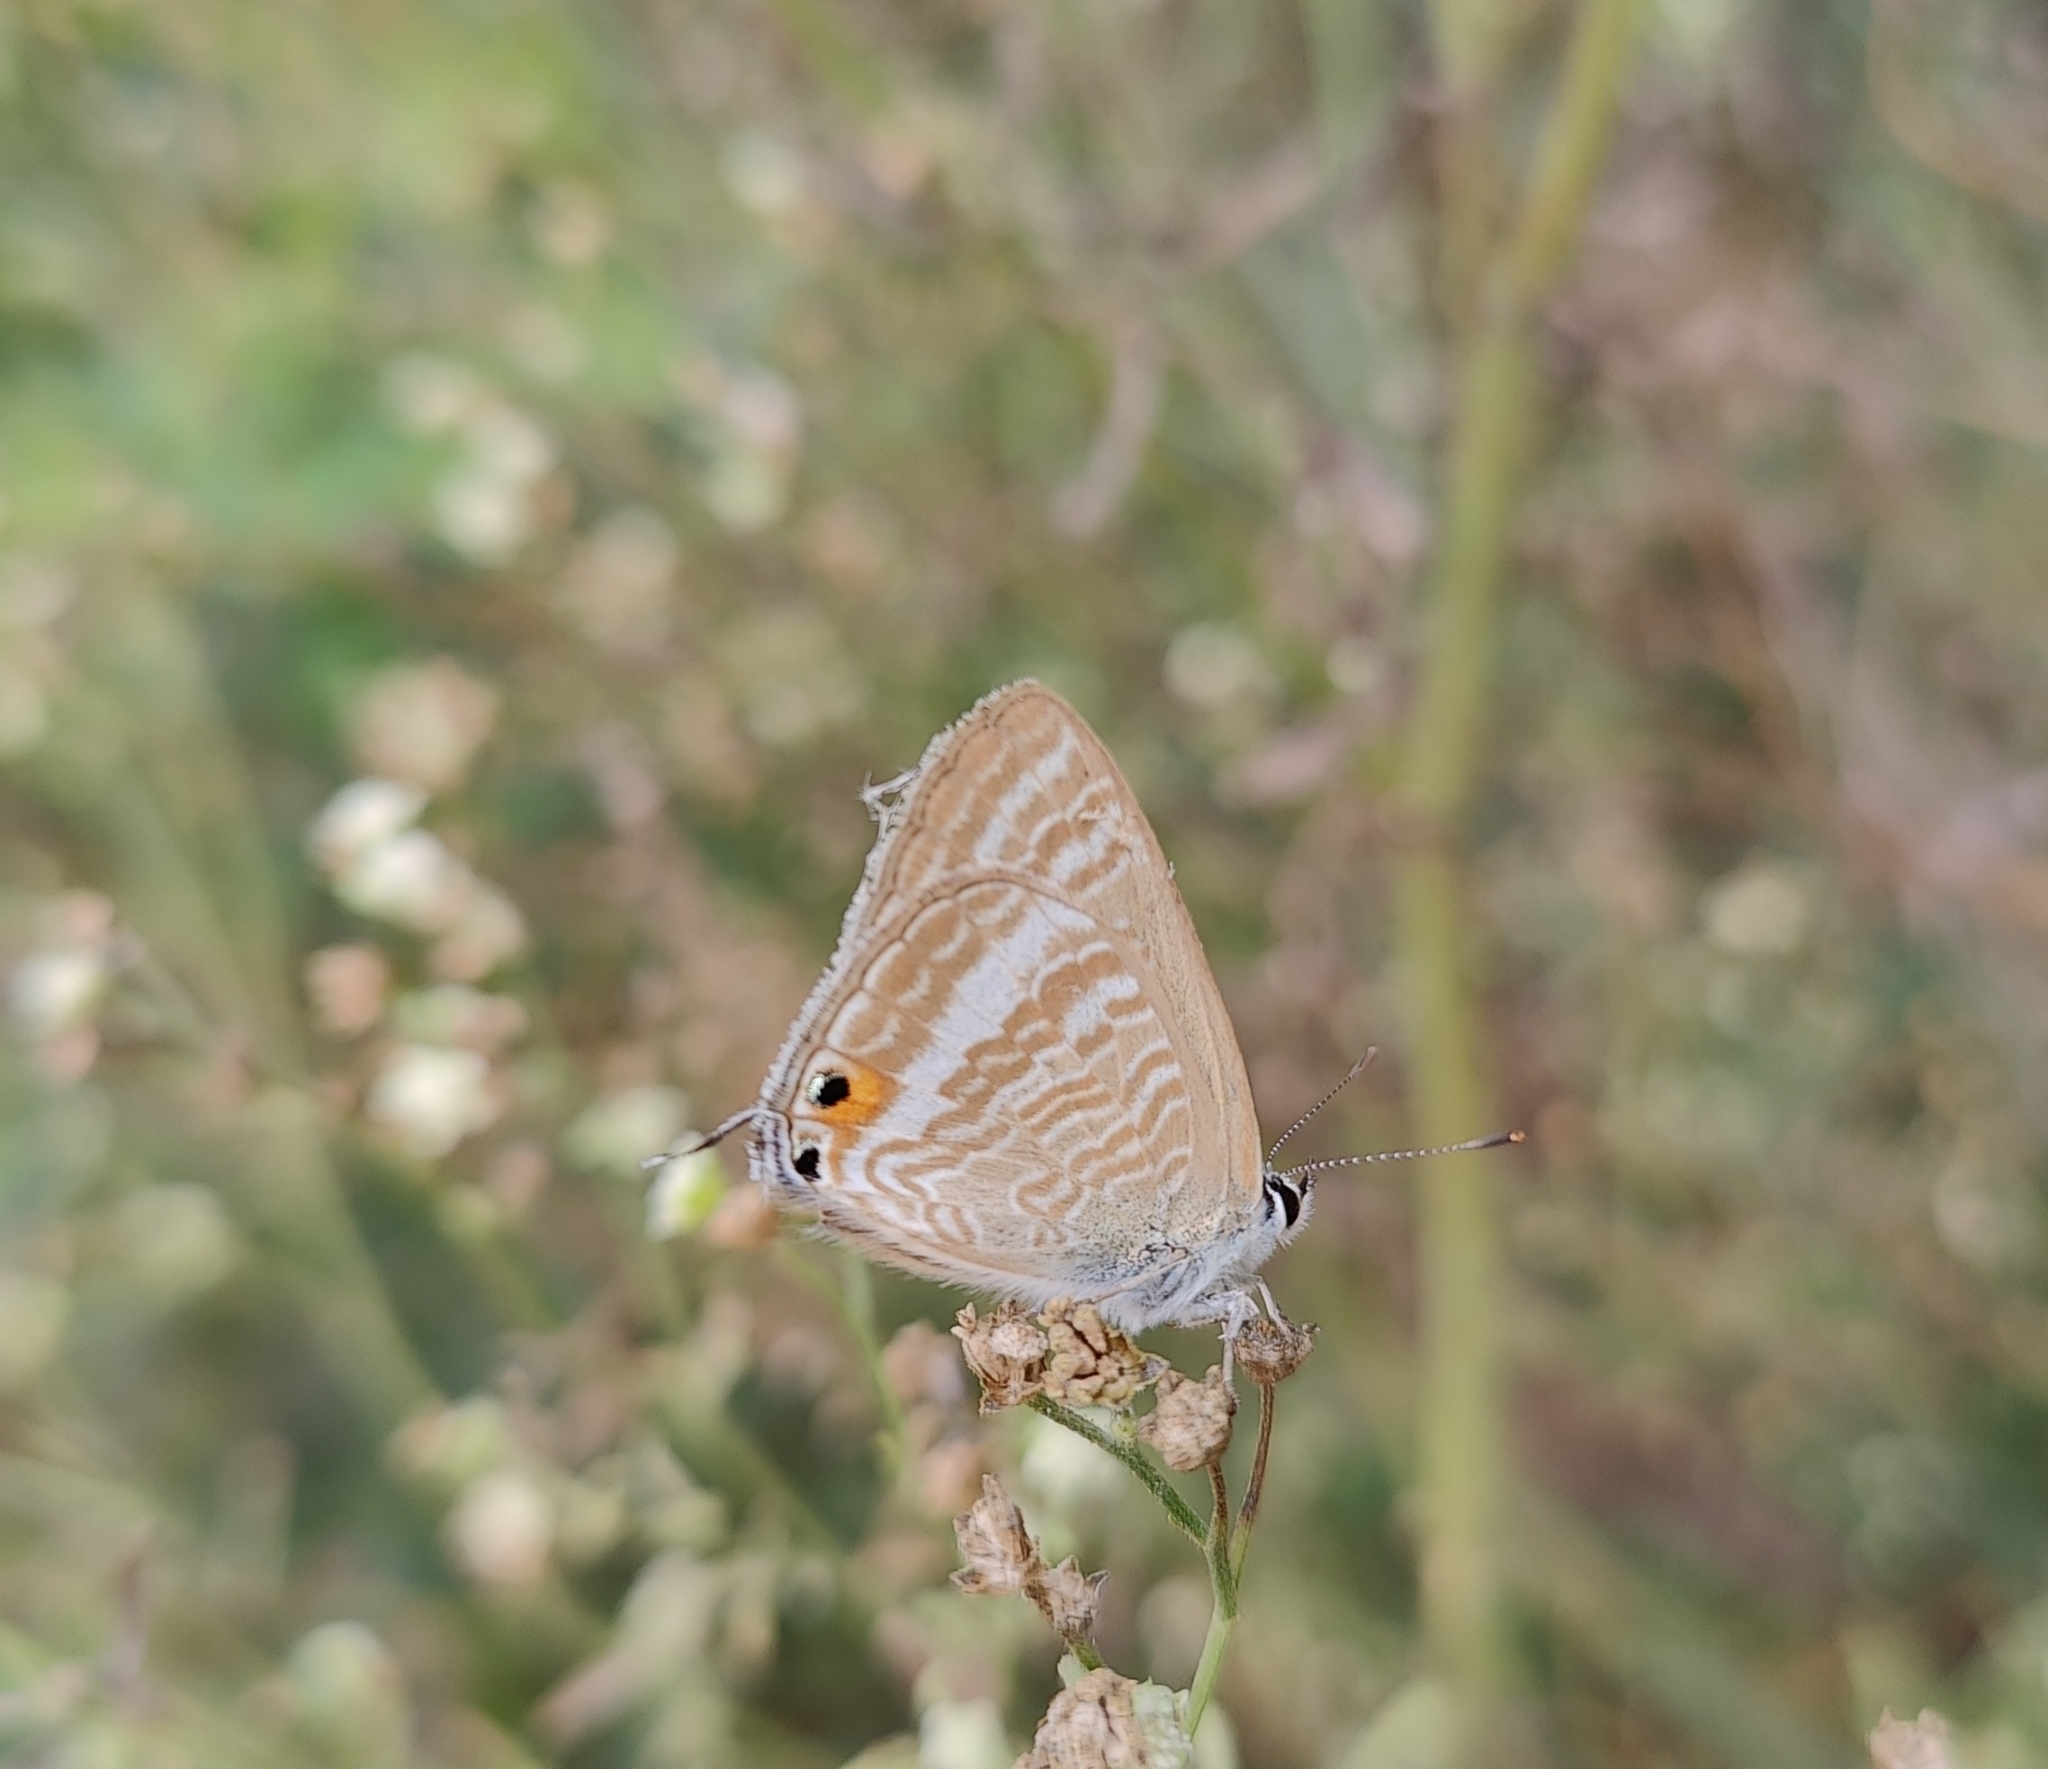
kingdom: Animalia
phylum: Arthropoda
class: Insecta
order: Lepidoptera
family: Lycaenidae
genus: Lampides
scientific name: Lampides boeticus
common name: Long-tailed blue
